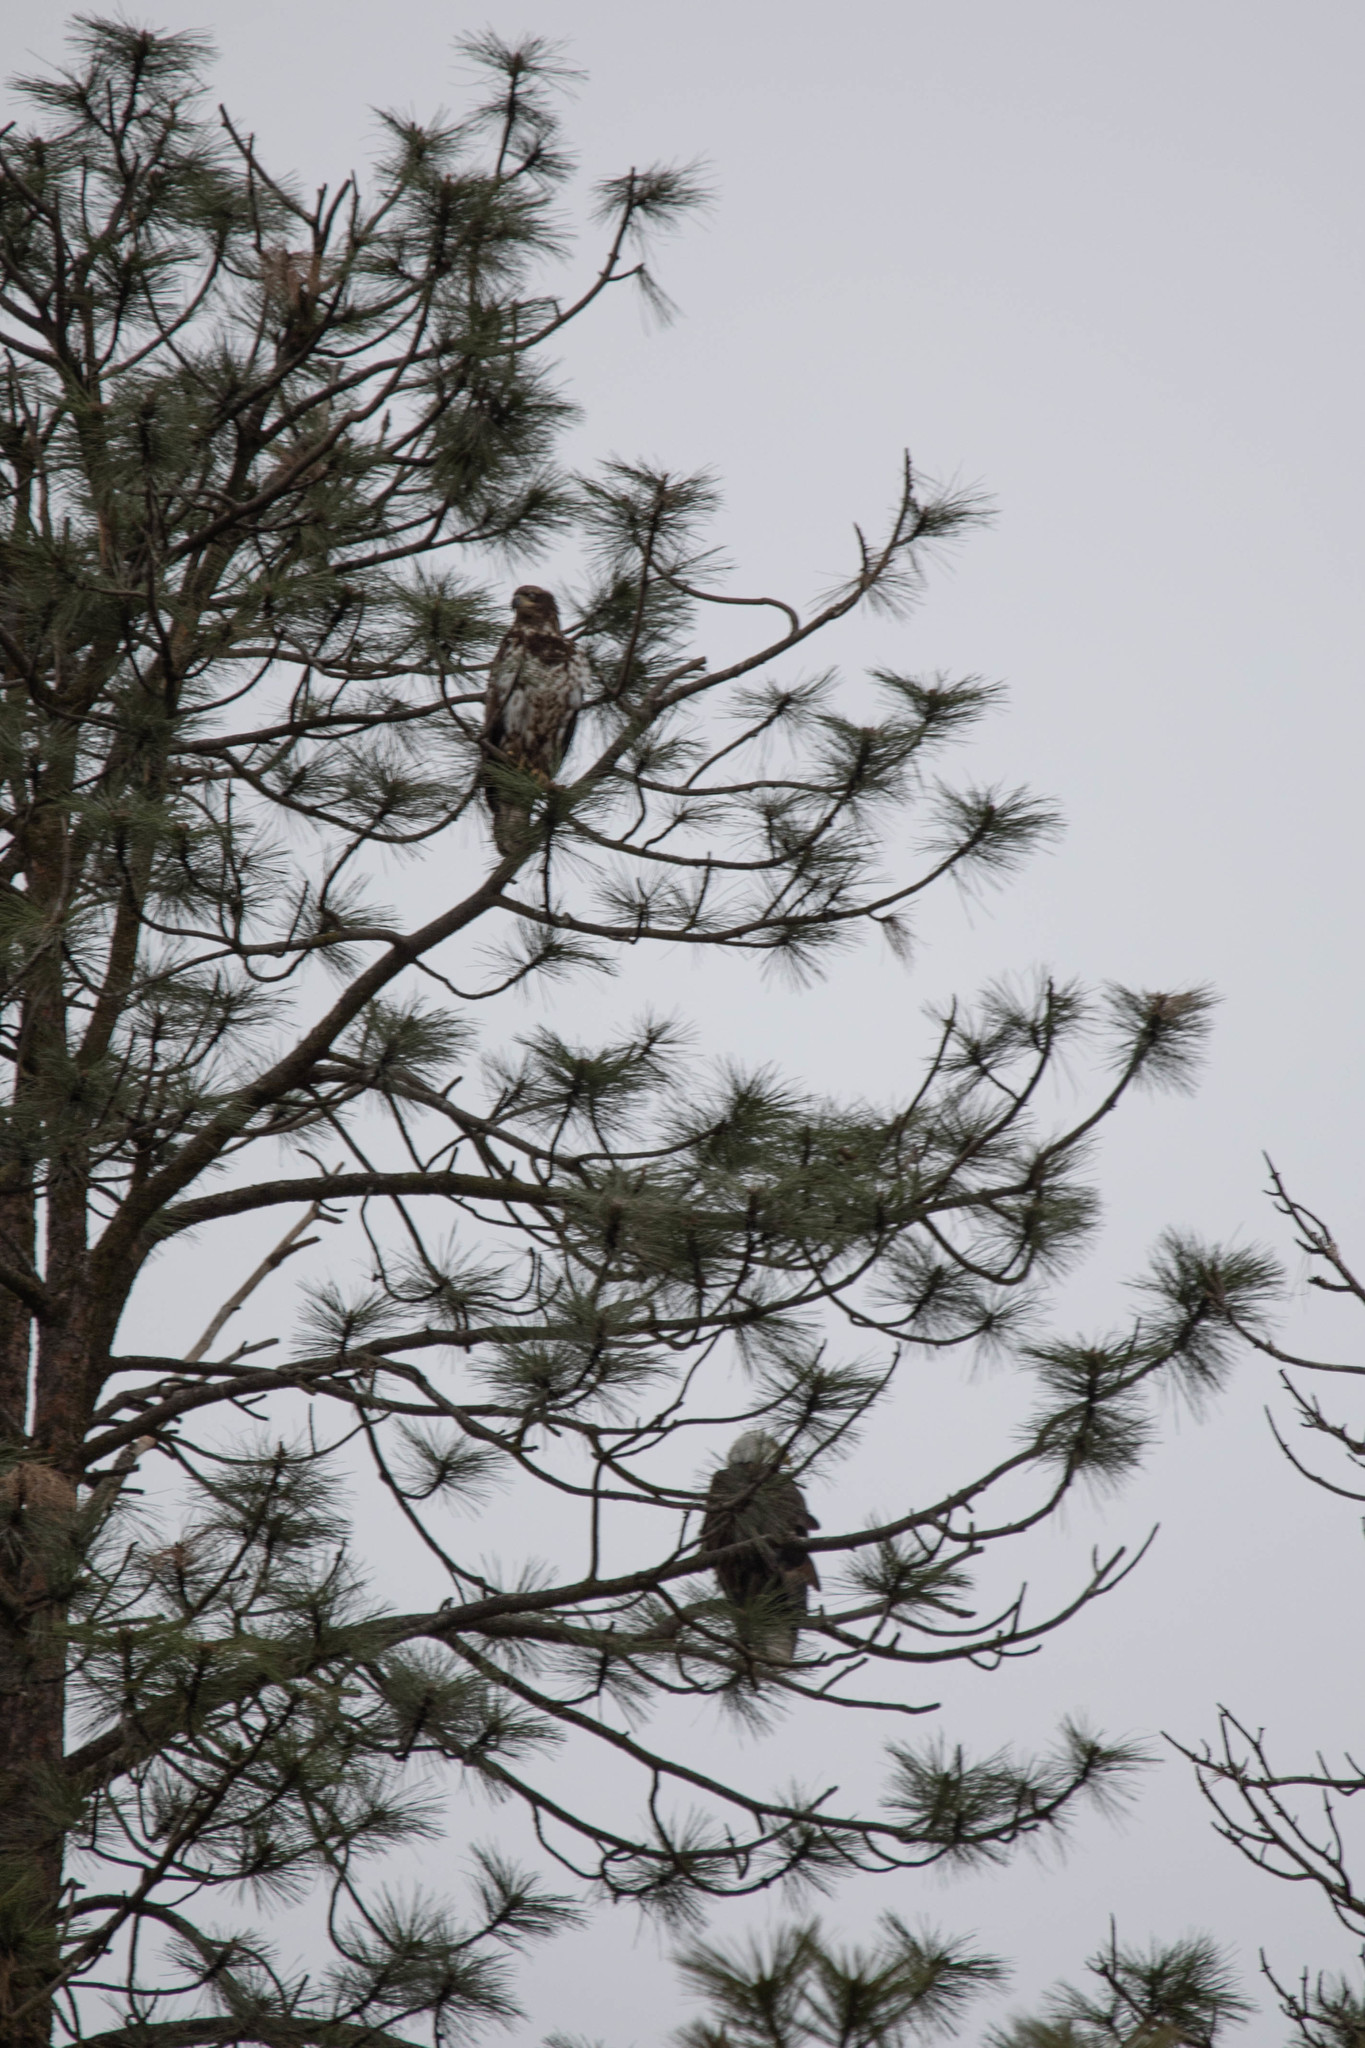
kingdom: Animalia
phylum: Chordata
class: Aves
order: Accipitriformes
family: Accipitridae
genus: Haliaeetus
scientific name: Haliaeetus leucocephalus
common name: Bald eagle
